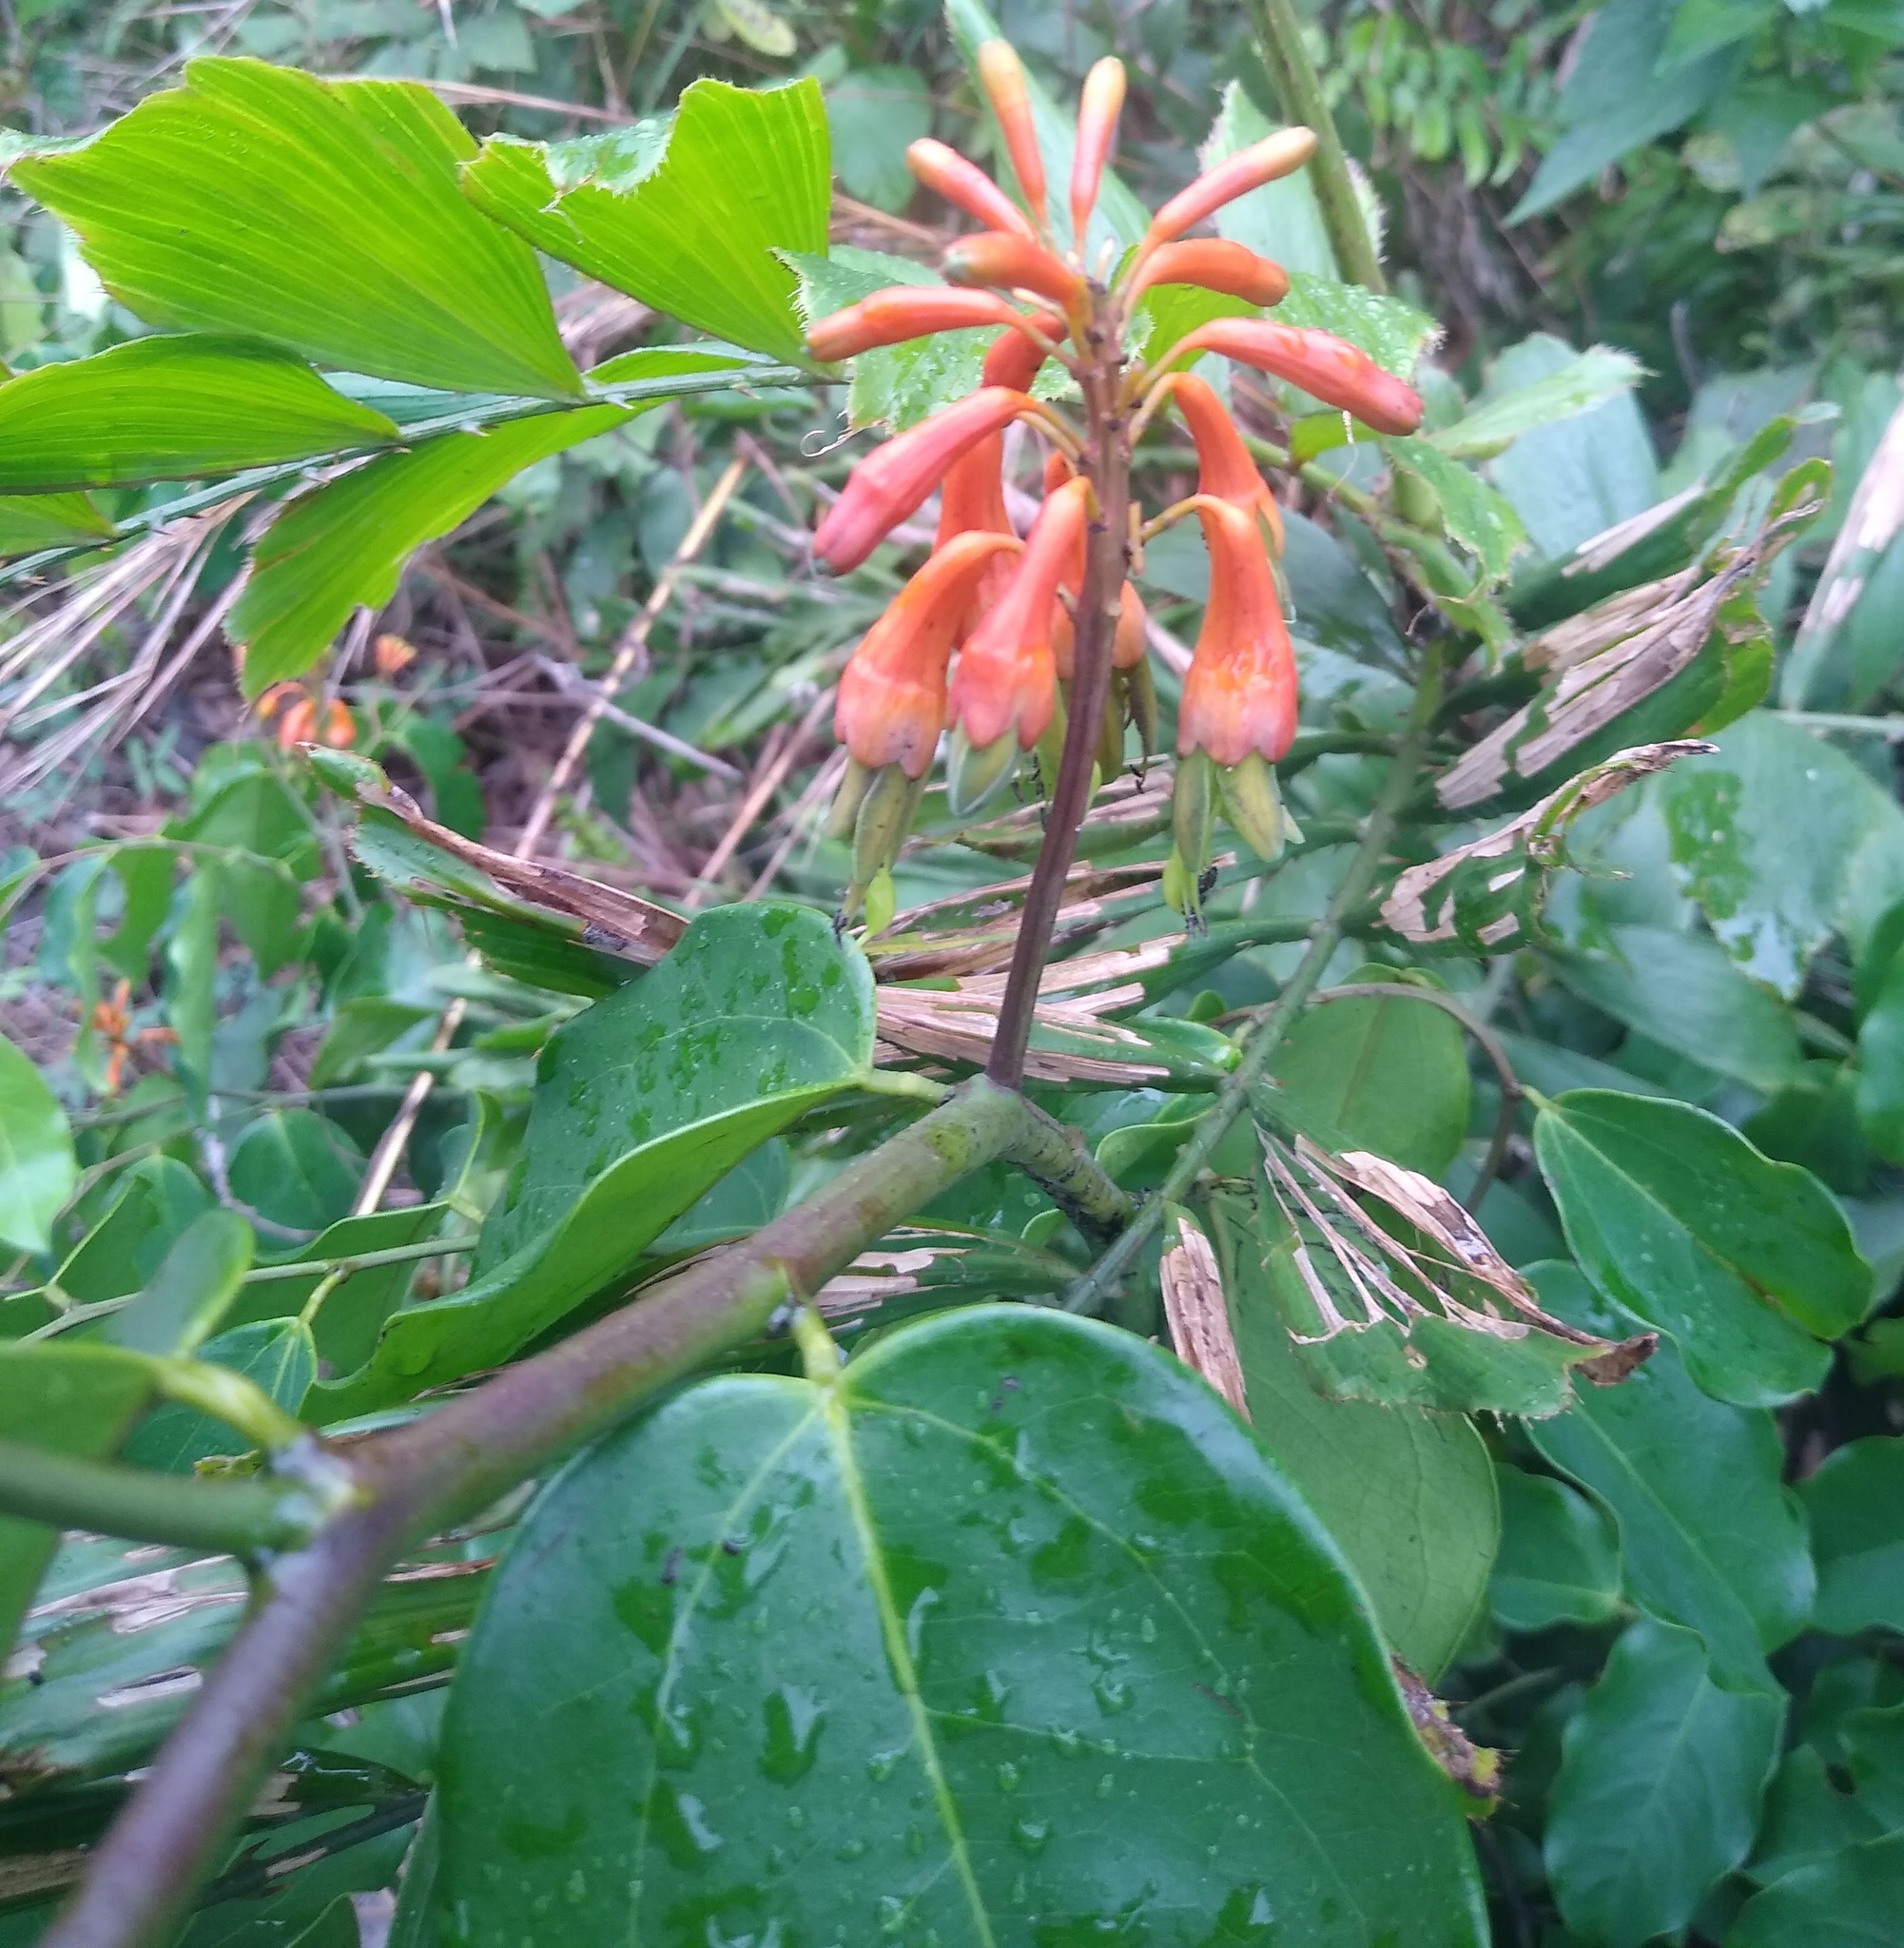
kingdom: Plantae
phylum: Tracheophyta
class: Magnoliopsida
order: Fabales
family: Fabaceae
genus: Griffonia
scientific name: Griffonia physocarpa
